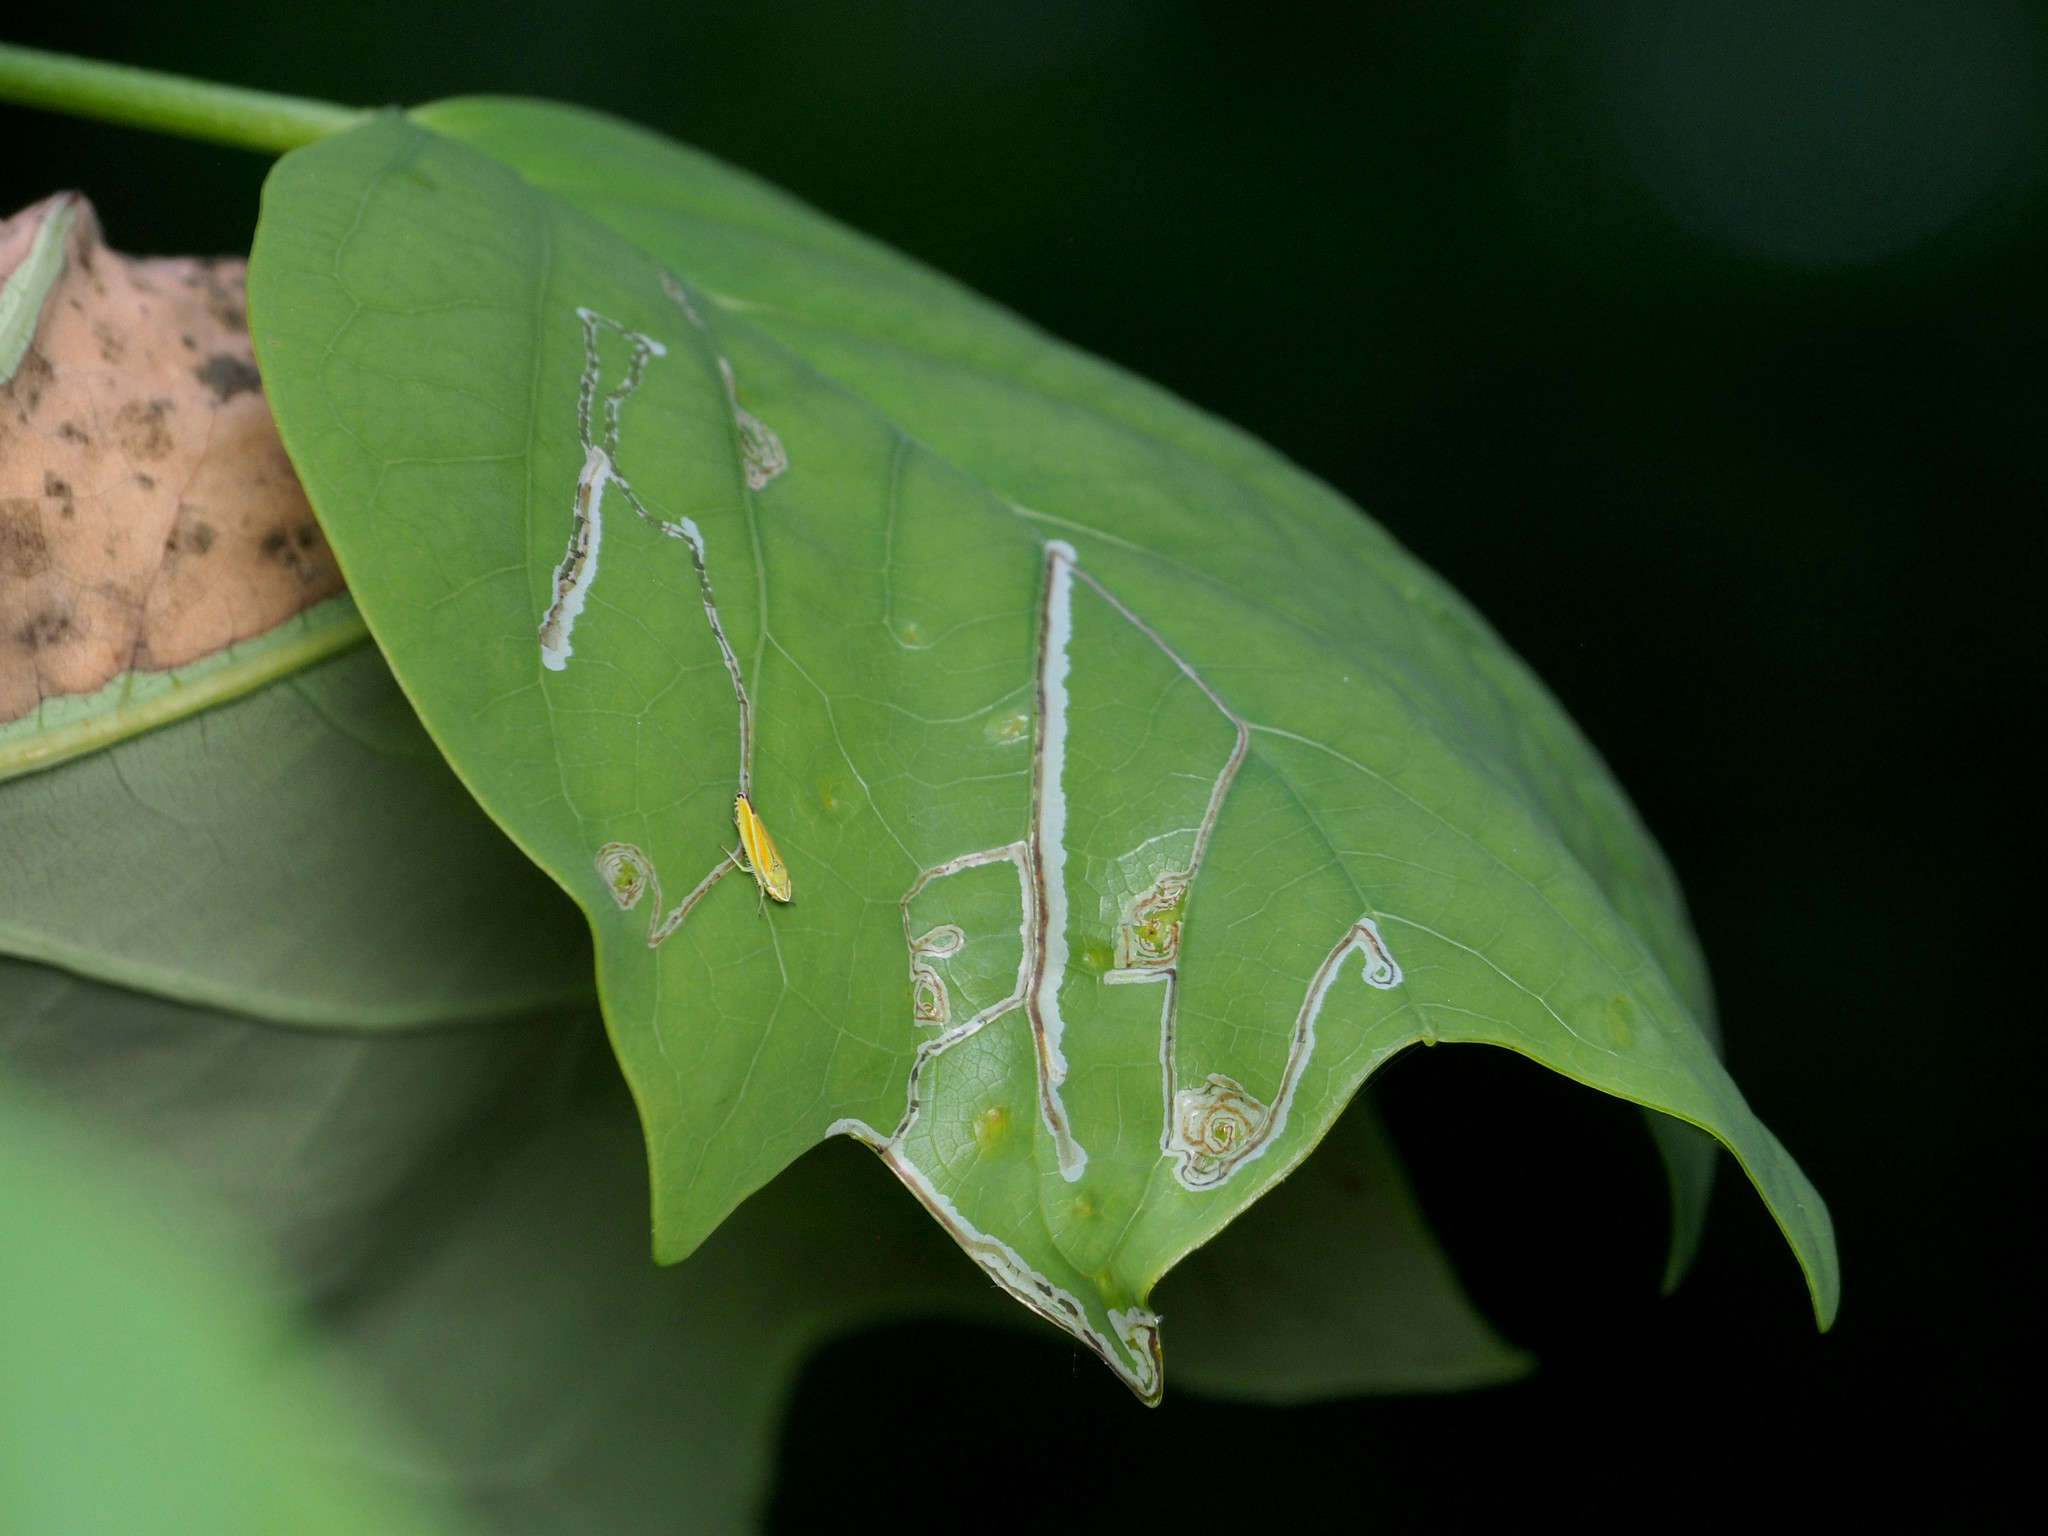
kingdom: Animalia
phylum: Arthropoda
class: Insecta
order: Lepidoptera
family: Gracillariidae
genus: Phyllocnistis
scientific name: Phyllocnistis liriodendronella
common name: Tulip tree leaf miner
